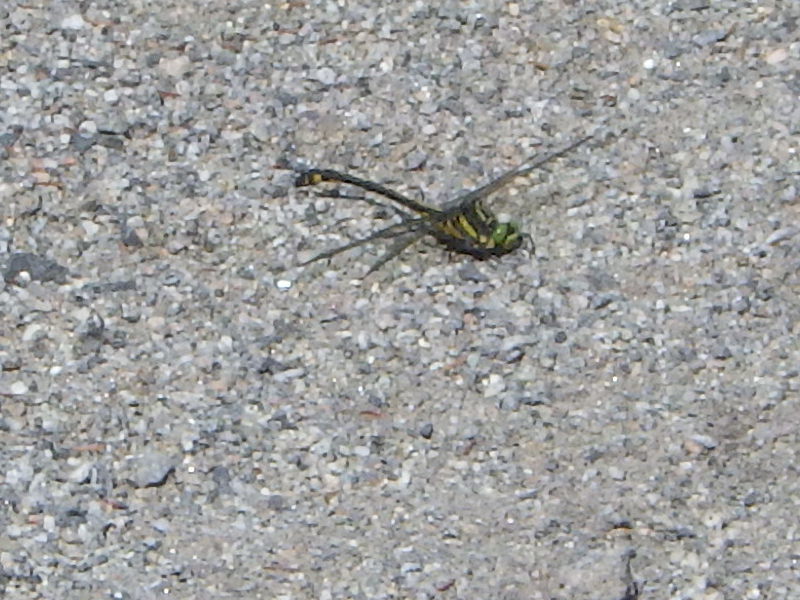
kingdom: Animalia
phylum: Arthropoda
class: Insecta
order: Odonata
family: Gomphidae
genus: Hagenius
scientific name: Hagenius brevistylus
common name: Dragonhunter
